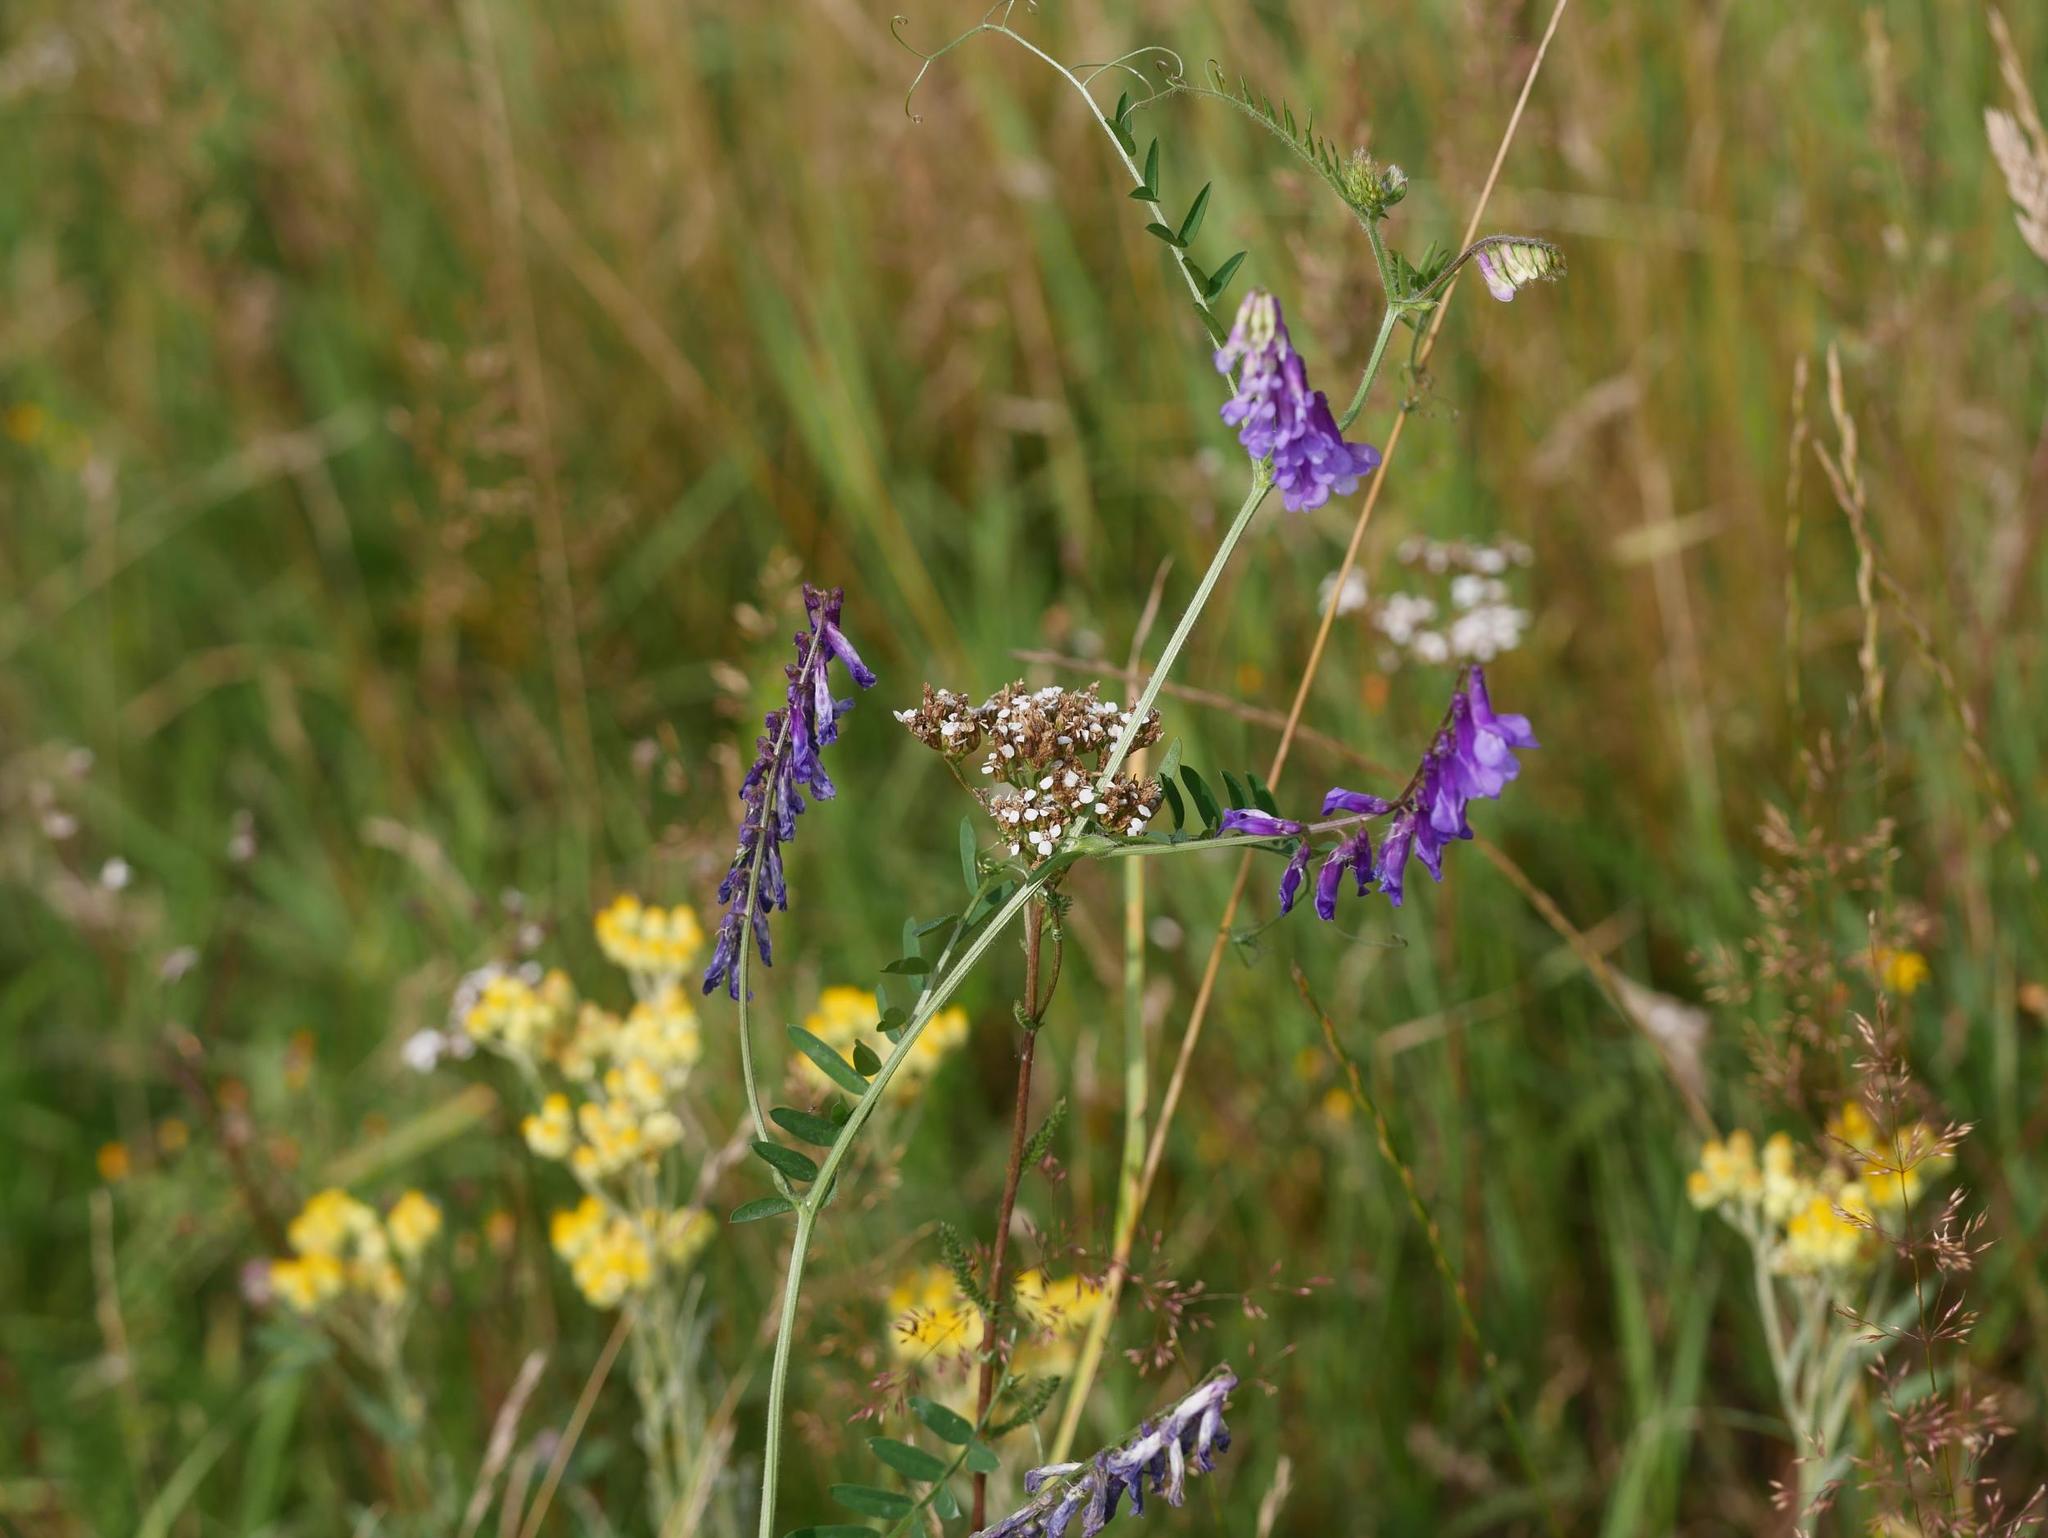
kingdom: Plantae
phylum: Tracheophyta
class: Magnoliopsida
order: Fabales
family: Fabaceae
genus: Vicia
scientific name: Vicia villosa
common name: Fodder vetch
